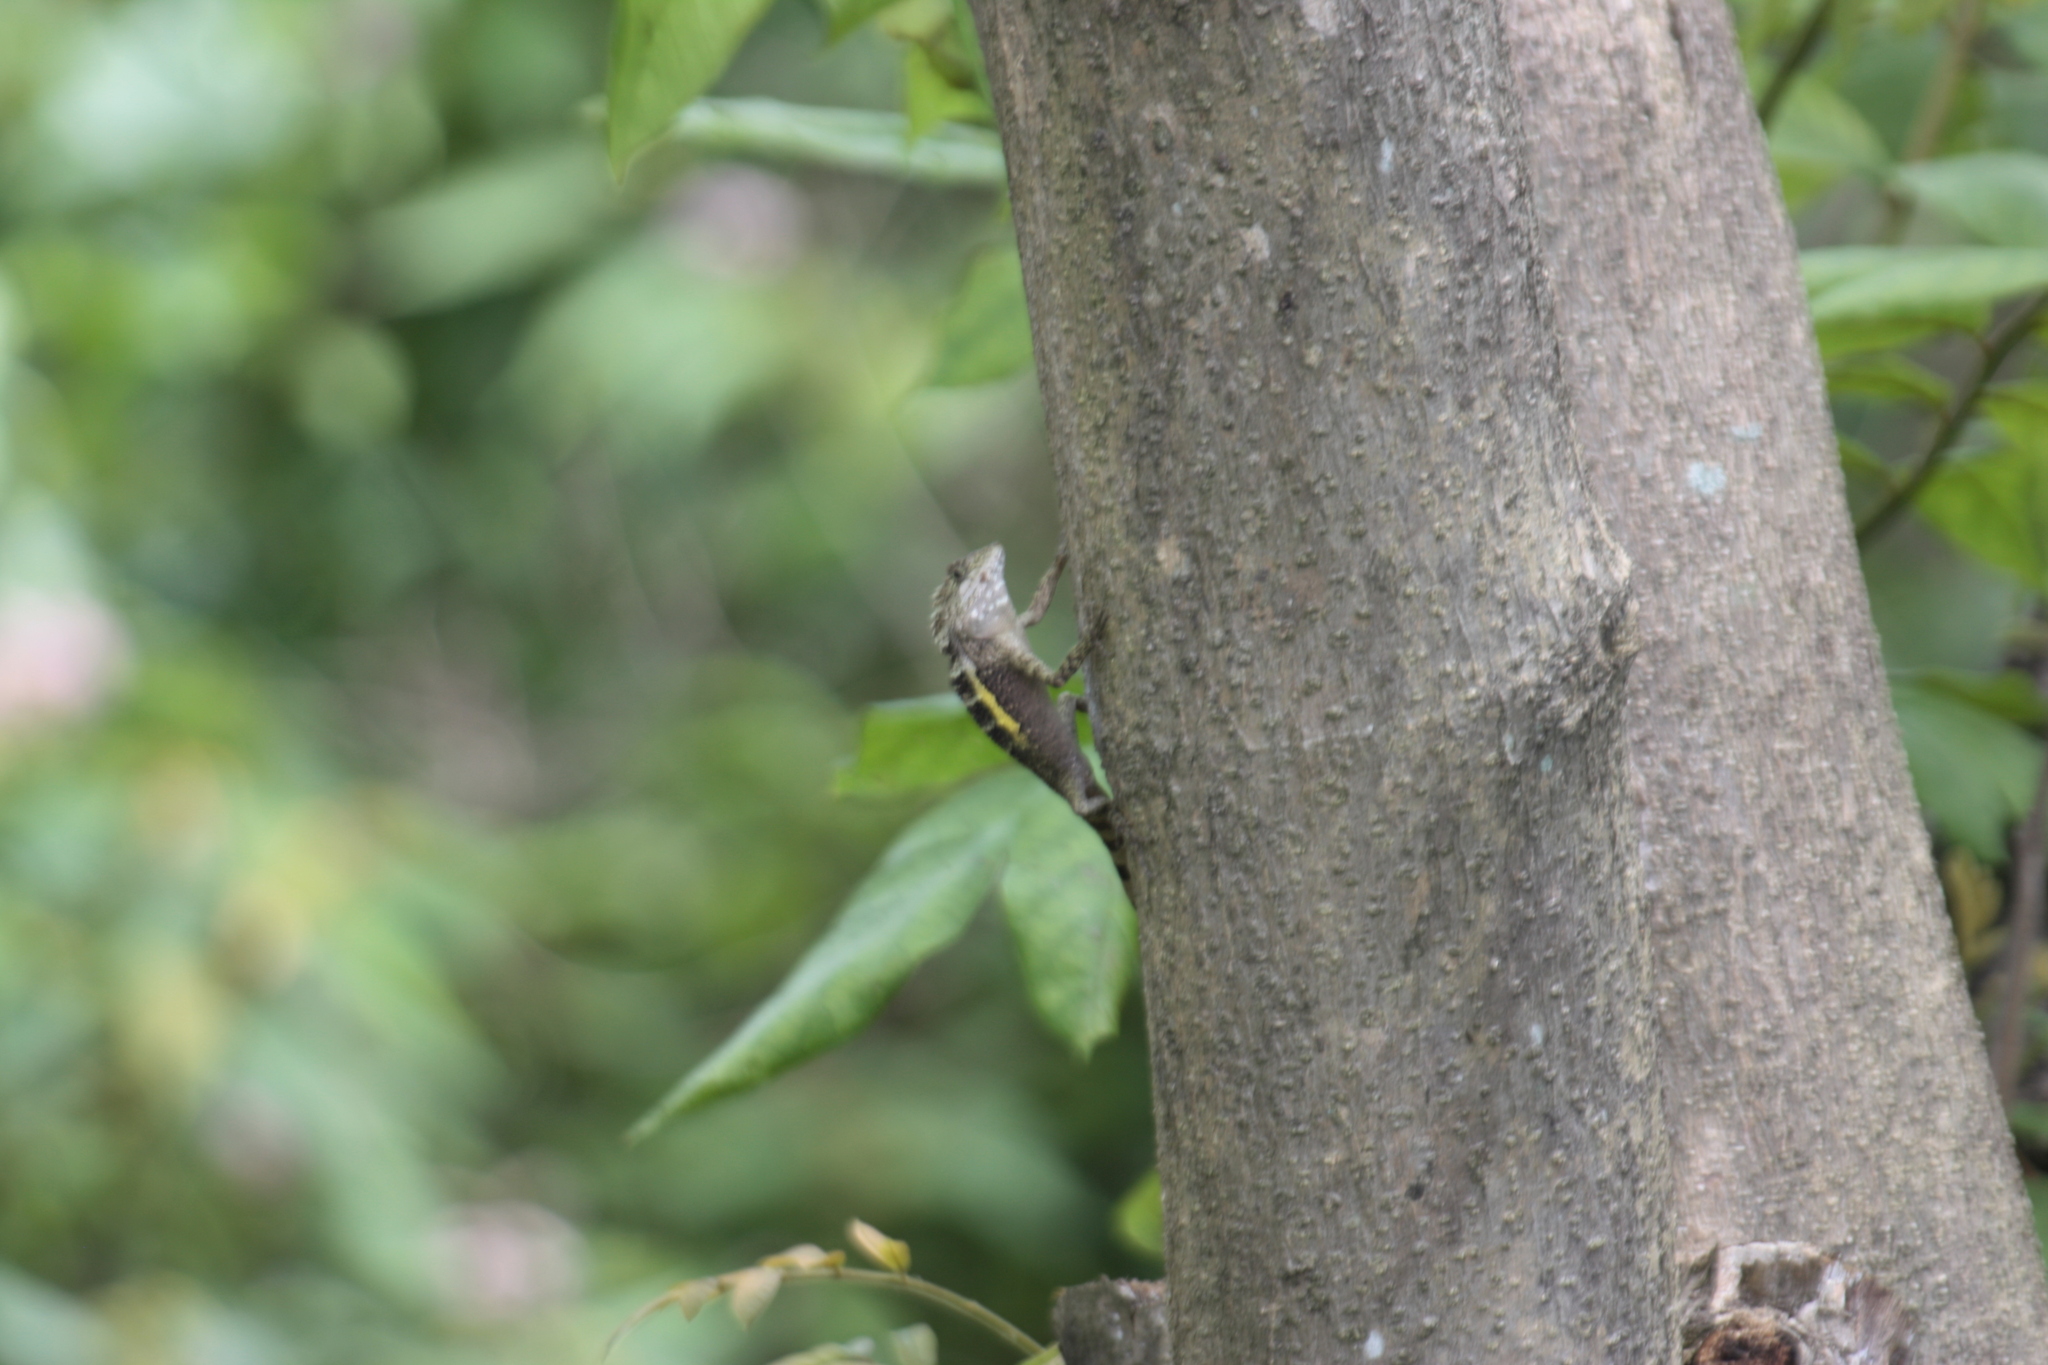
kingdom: Animalia
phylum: Chordata
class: Squamata
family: Agamidae
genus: Diploderma
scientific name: Diploderma swinhonis
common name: Taiwan japalure
